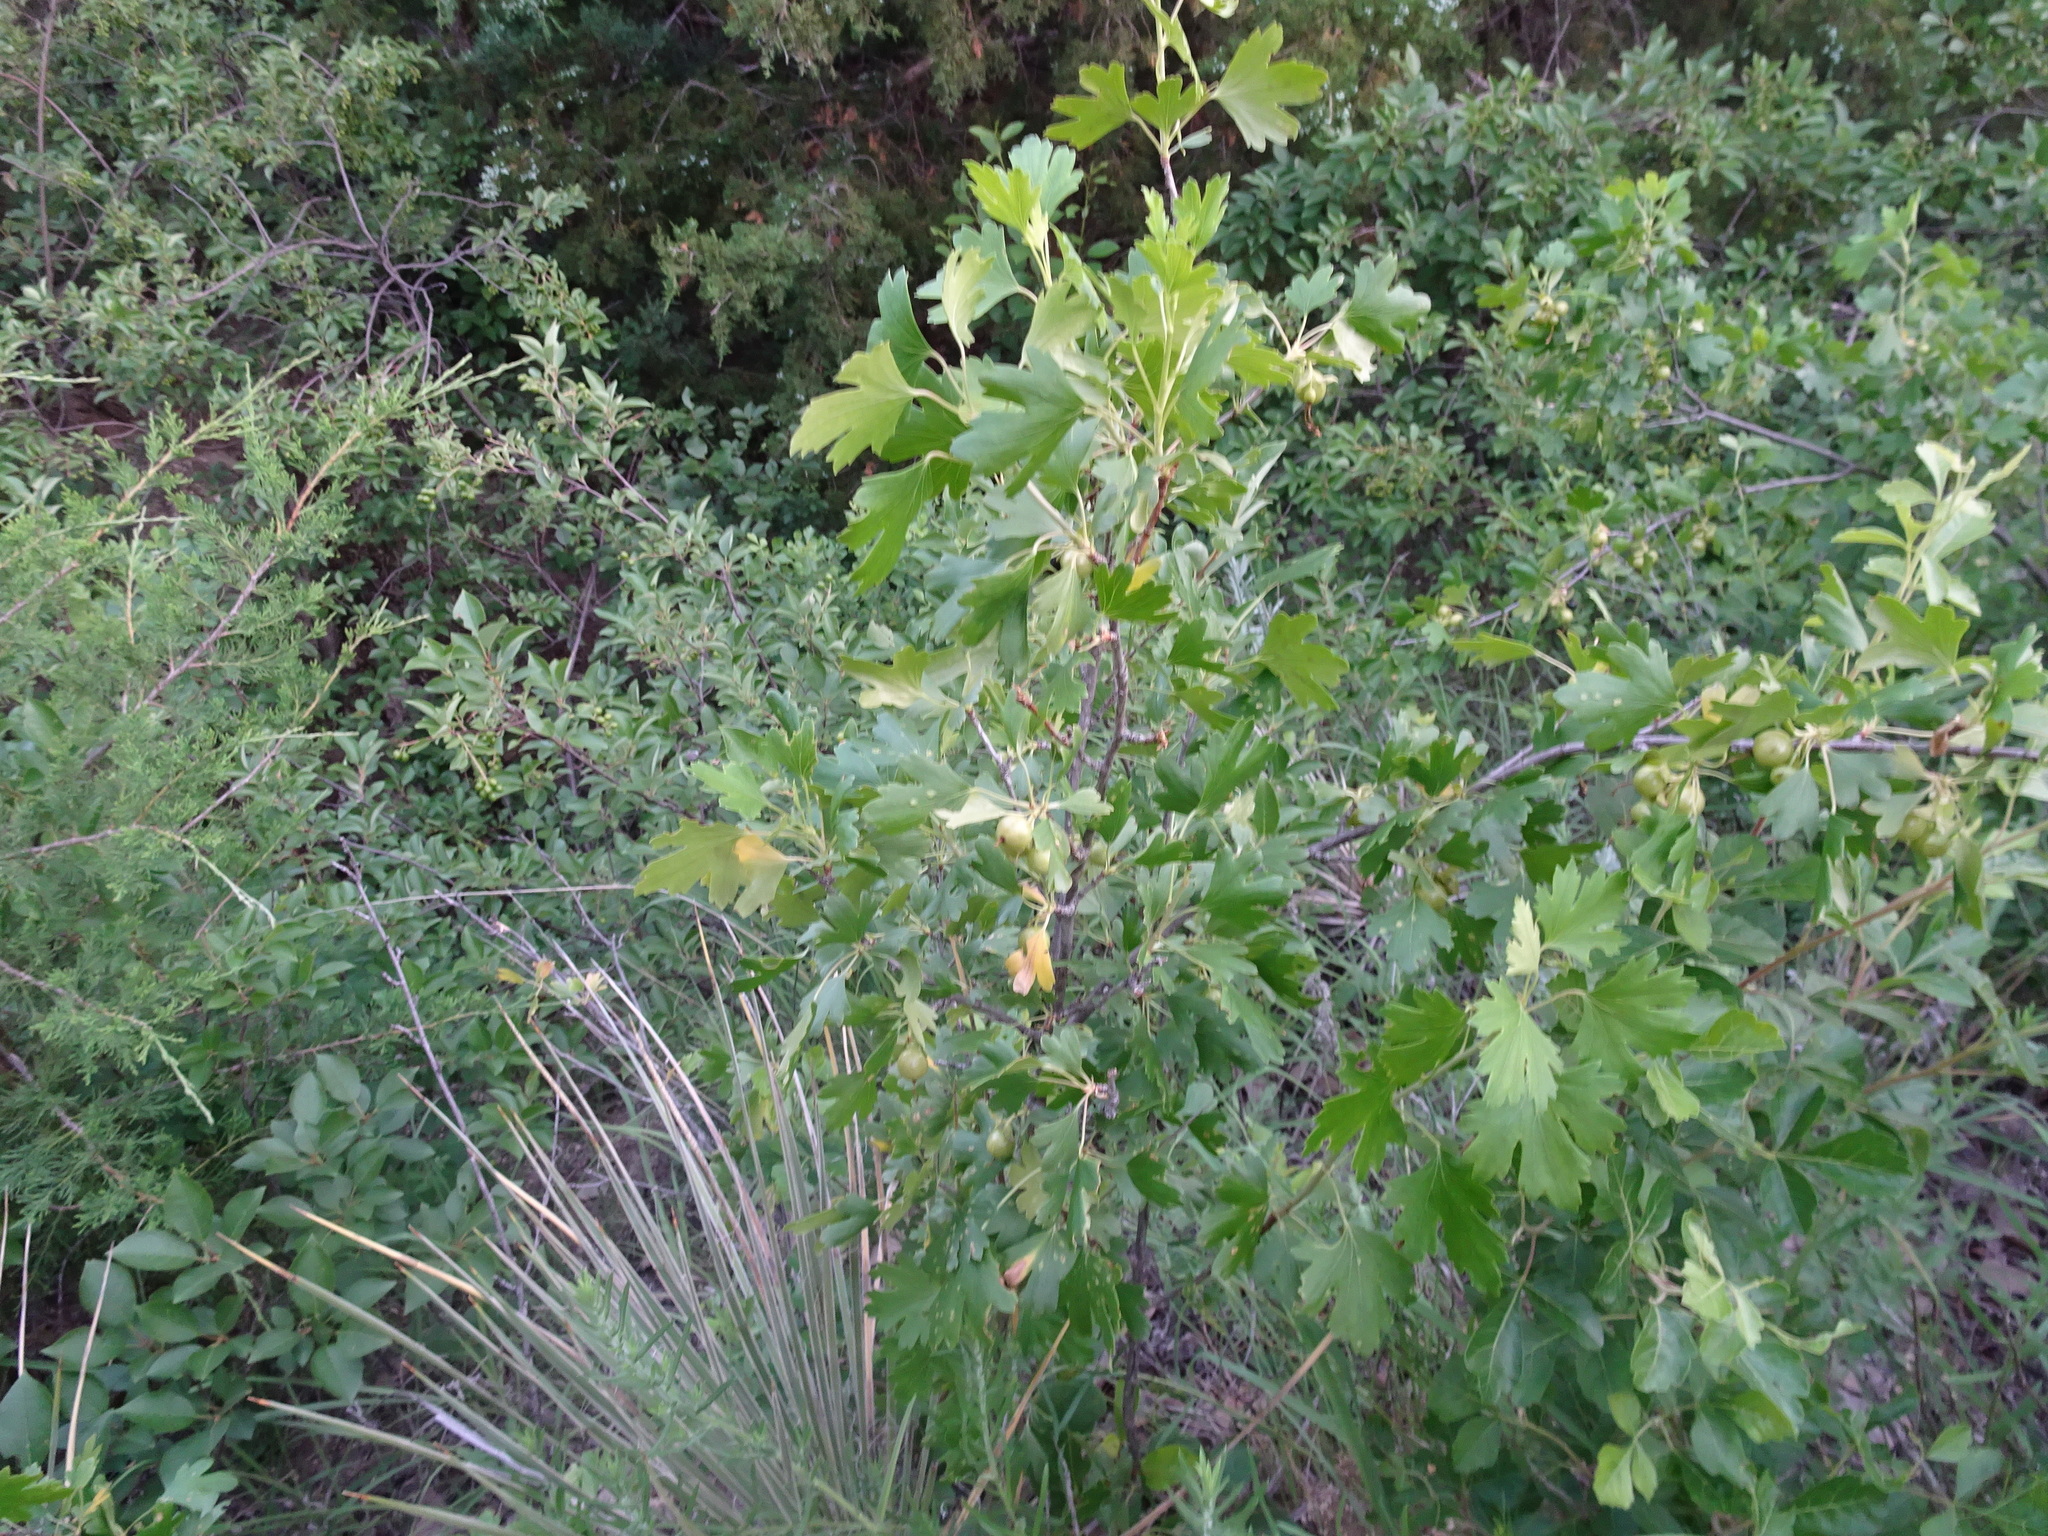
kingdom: Plantae
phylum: Tracheophyta
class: Magnoliopsida
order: Saxifragales
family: Grossulariaceae
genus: Ribes
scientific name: Ribes aureum
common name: Golden currant
